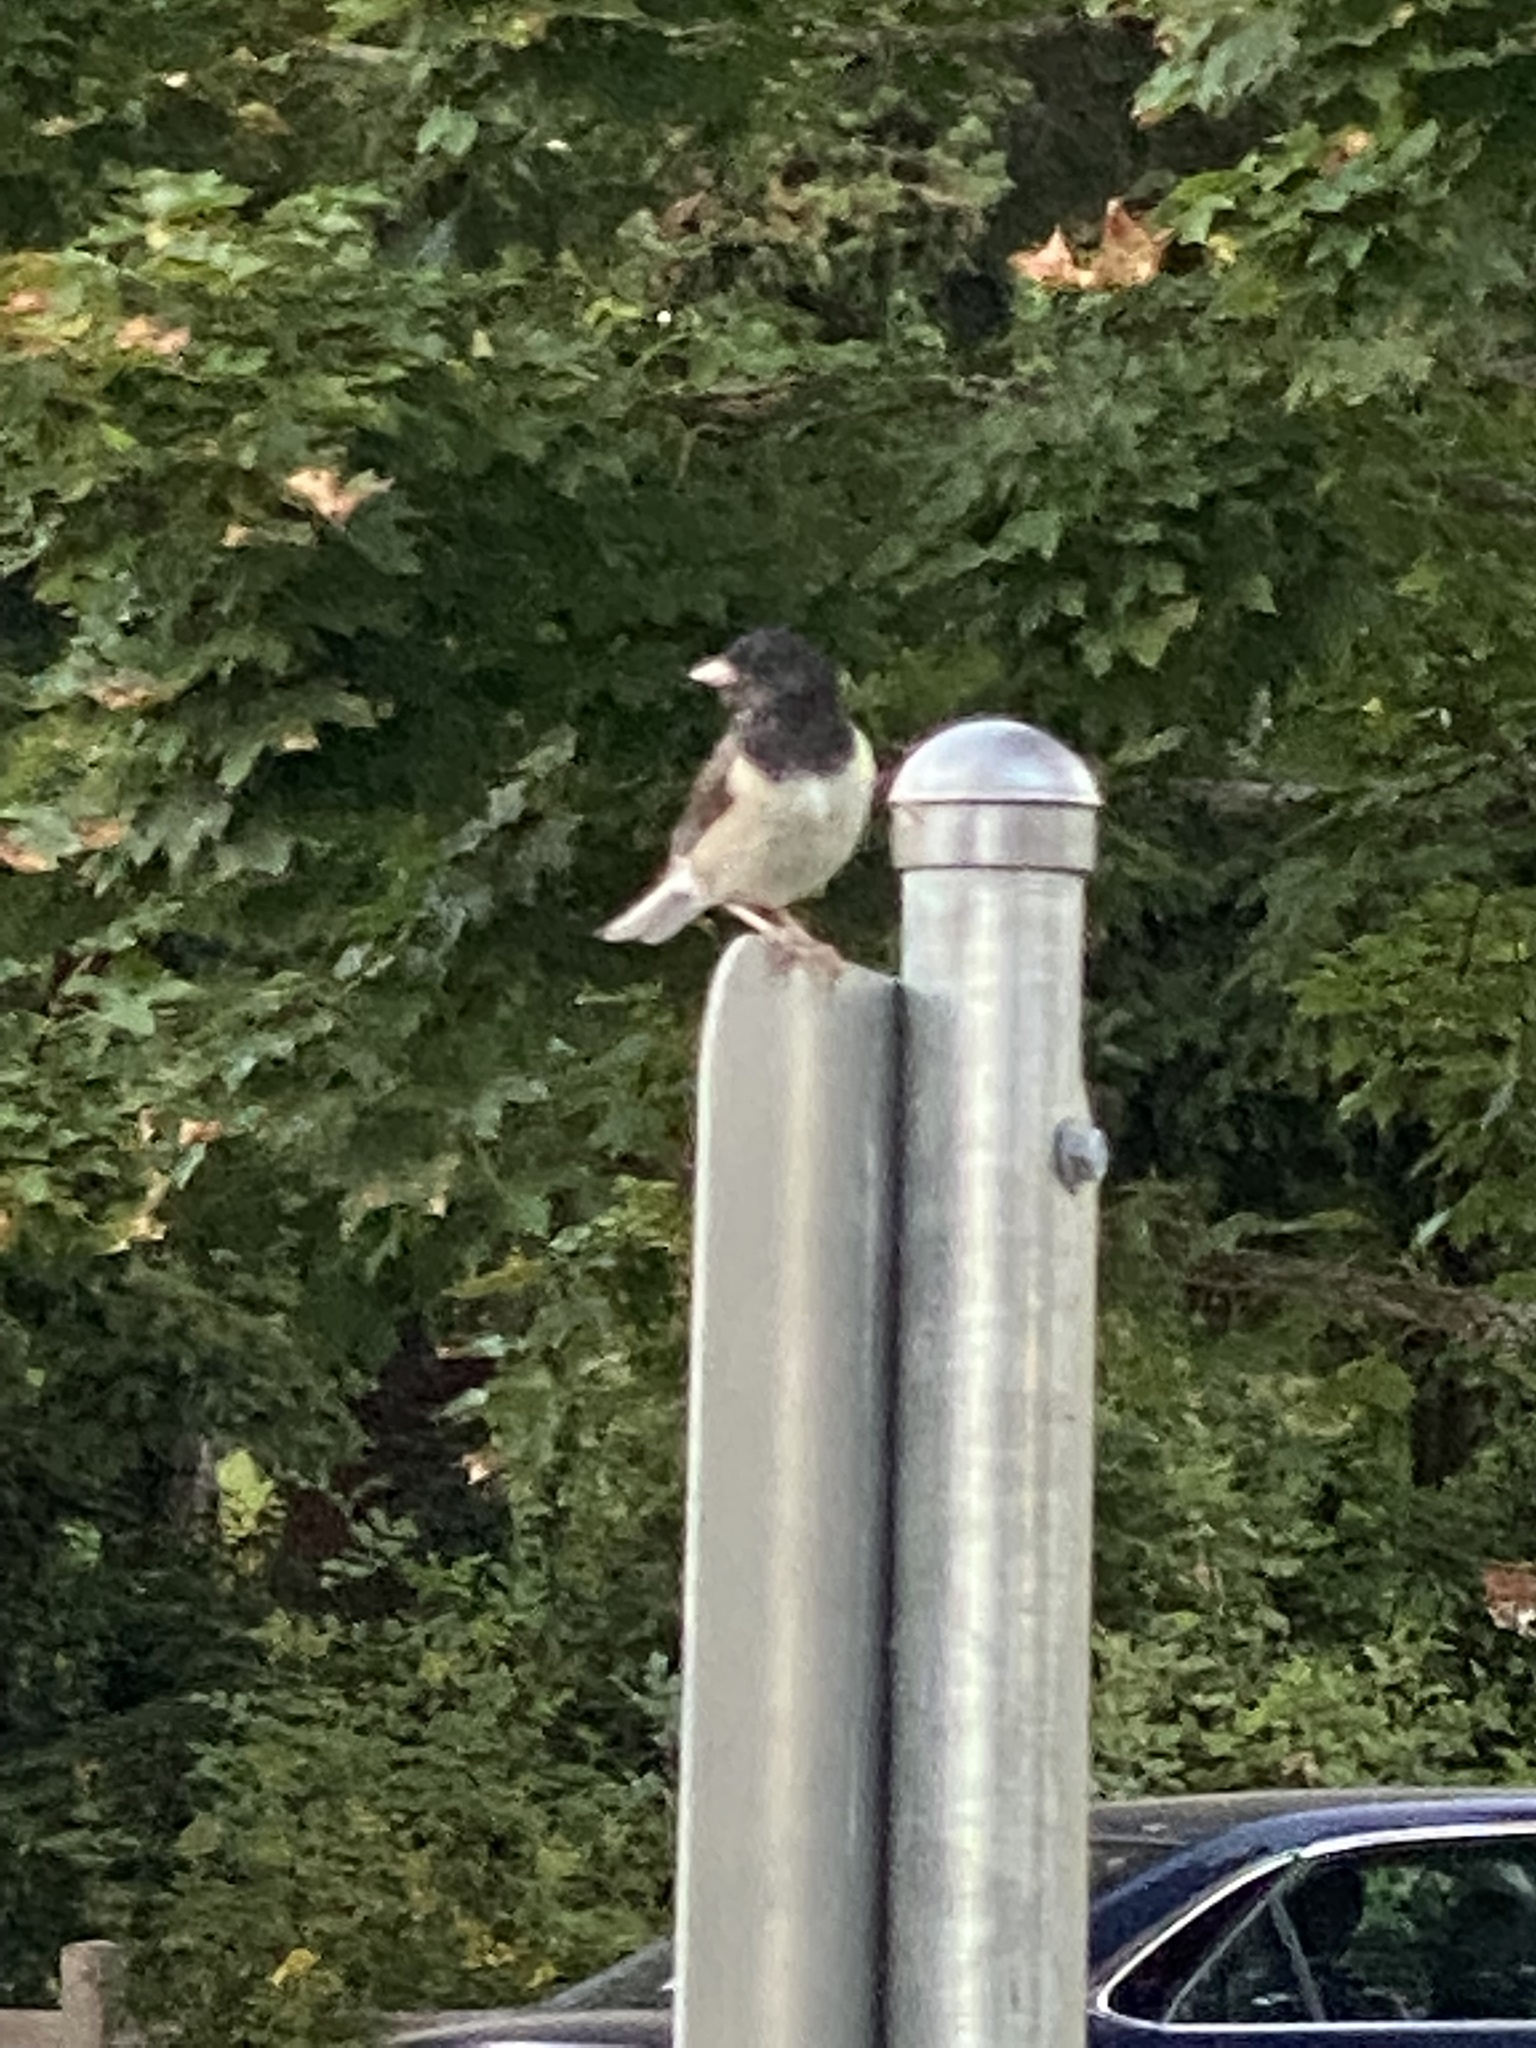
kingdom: Animalia
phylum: Chordata
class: Aves
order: Passeriformes
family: Passerellidae
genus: Junco
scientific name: Junco hyemalis
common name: Dark-eyed junco
